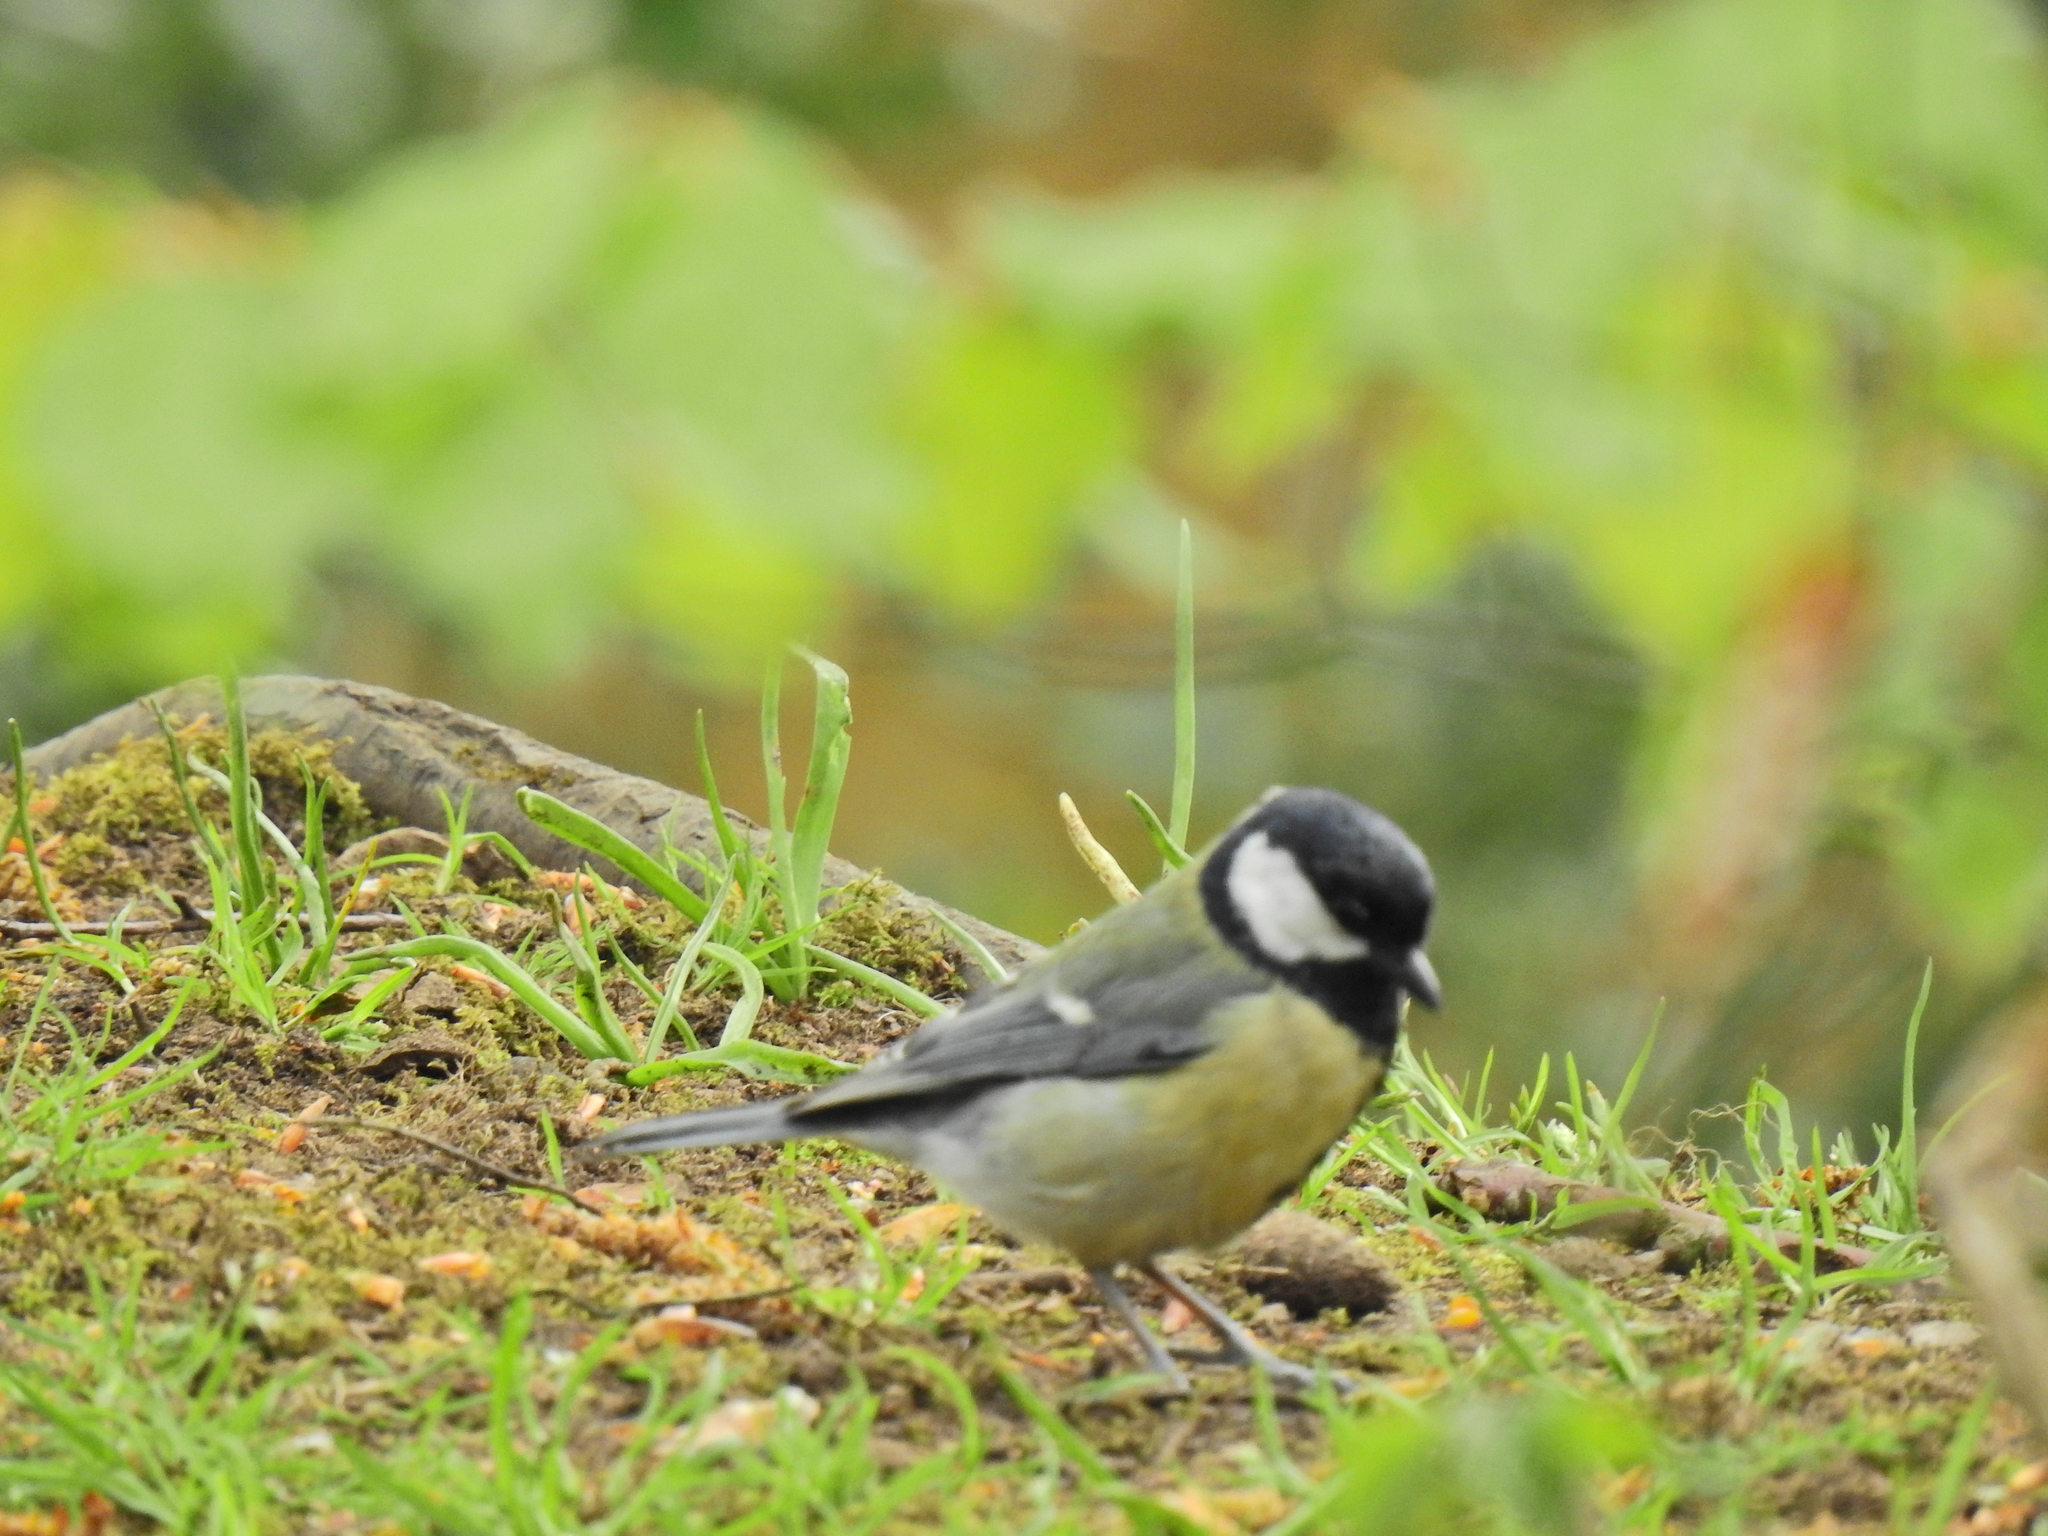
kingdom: Animalia
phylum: Chordata
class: Aves
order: Passeriformes
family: Paridae
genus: Parus
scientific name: Parus major
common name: Great tit
